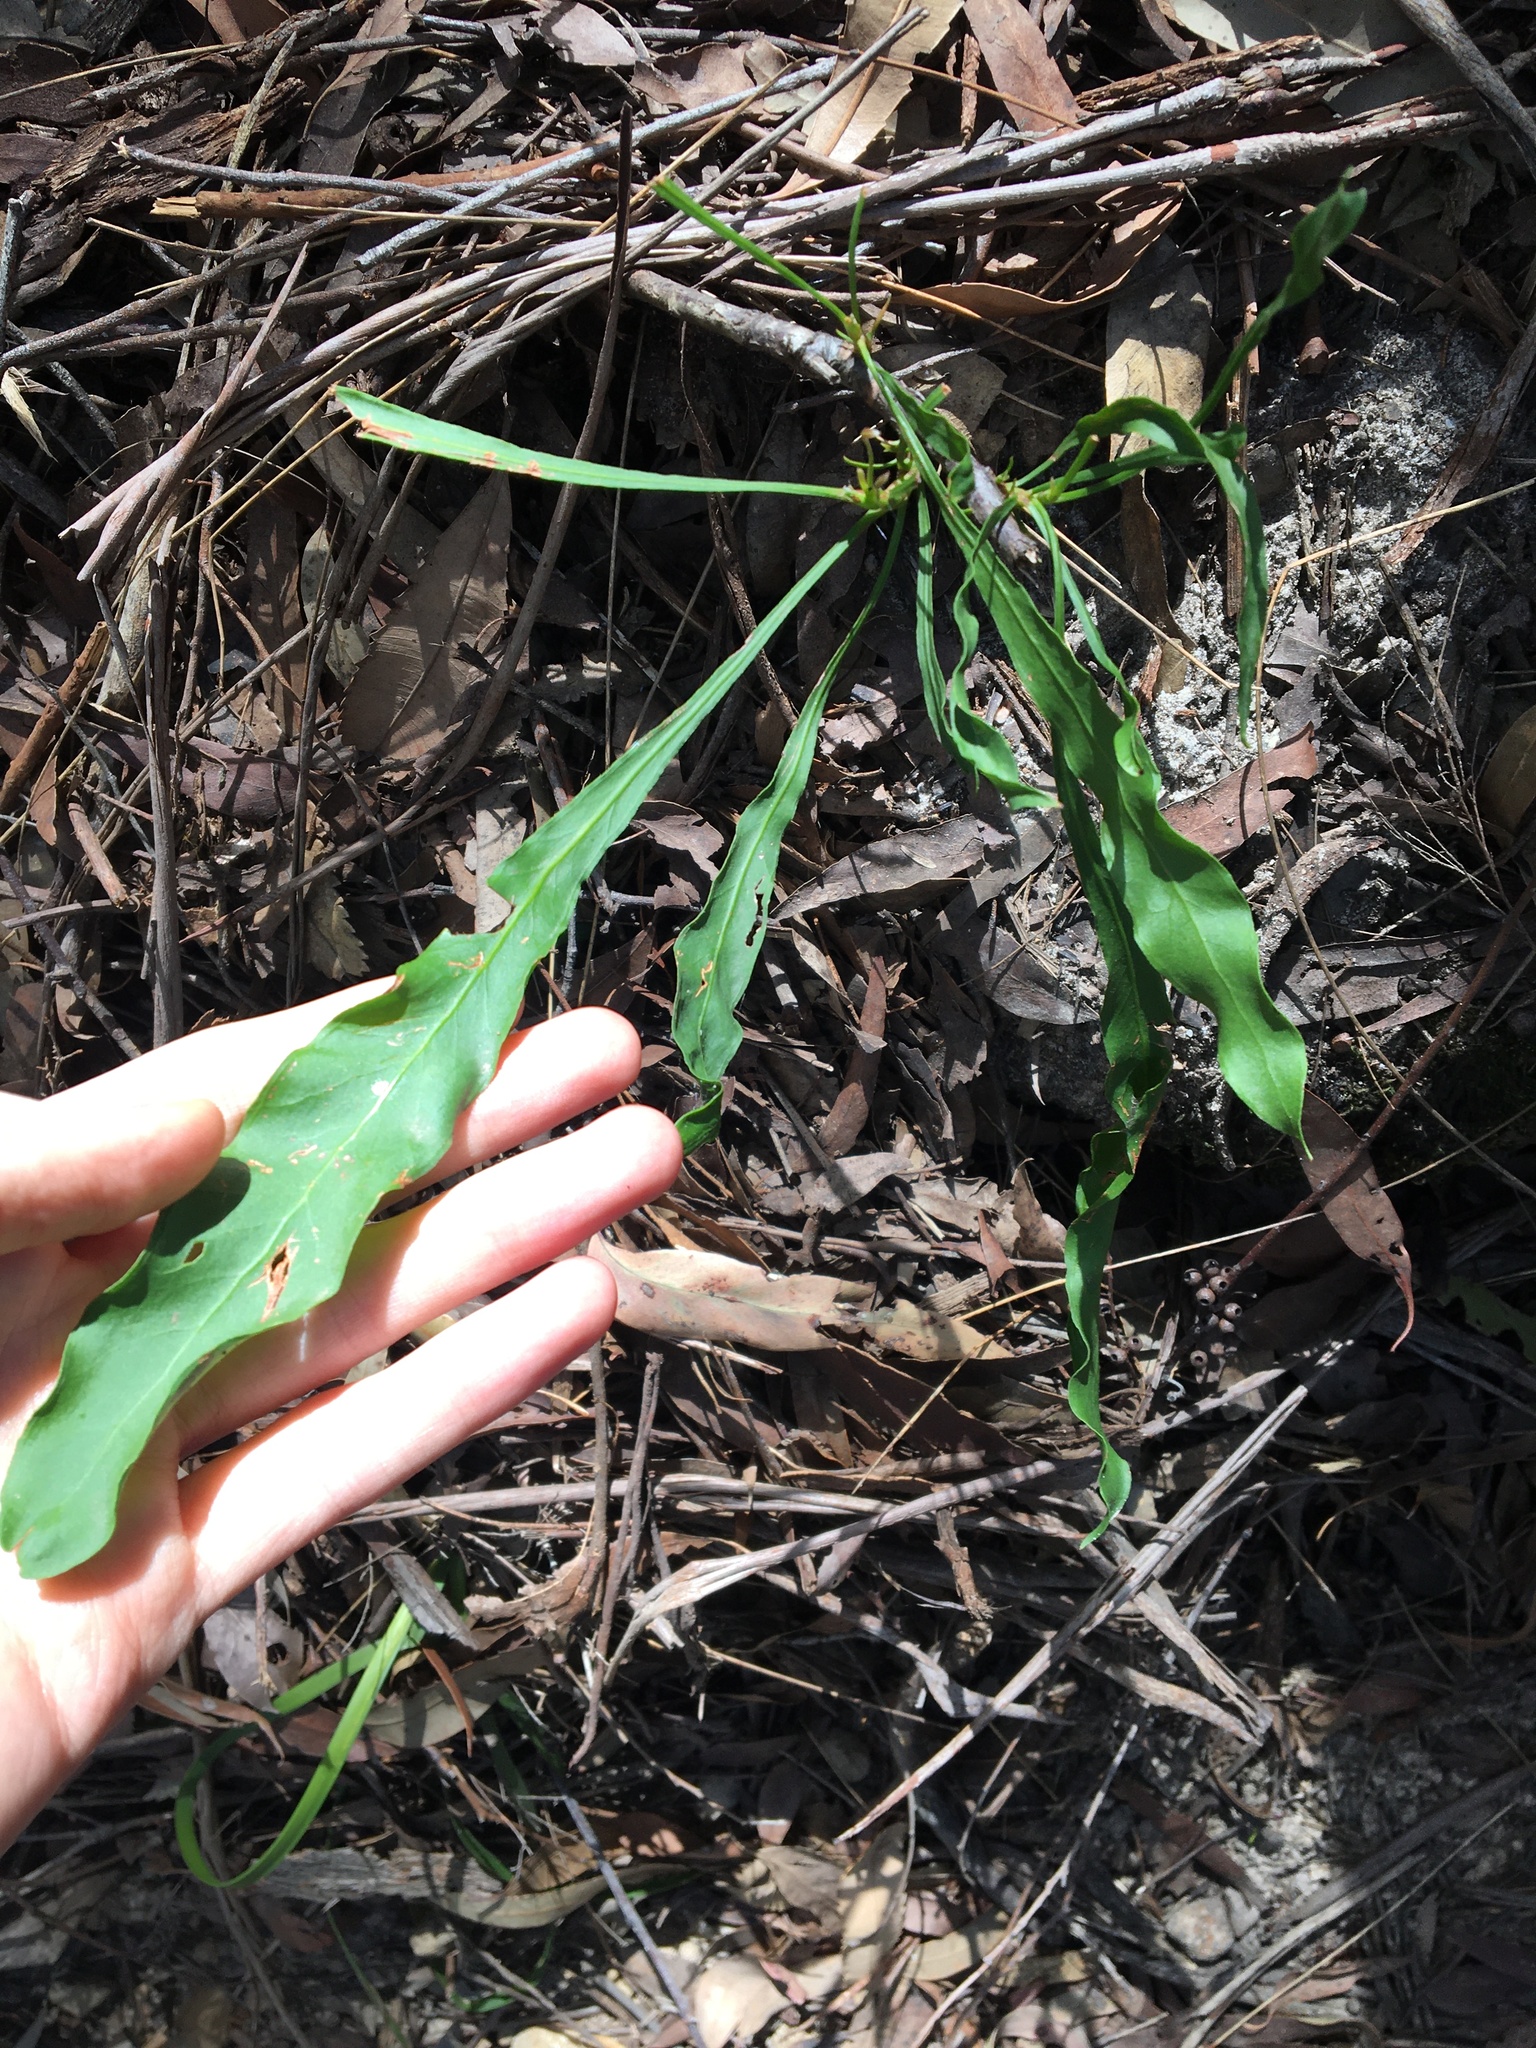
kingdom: Plantae
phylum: Tracheophyta
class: Magnoliopsida
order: Proteales
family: Proteaceae
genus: Conospermum
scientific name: Conospermum longifolium
